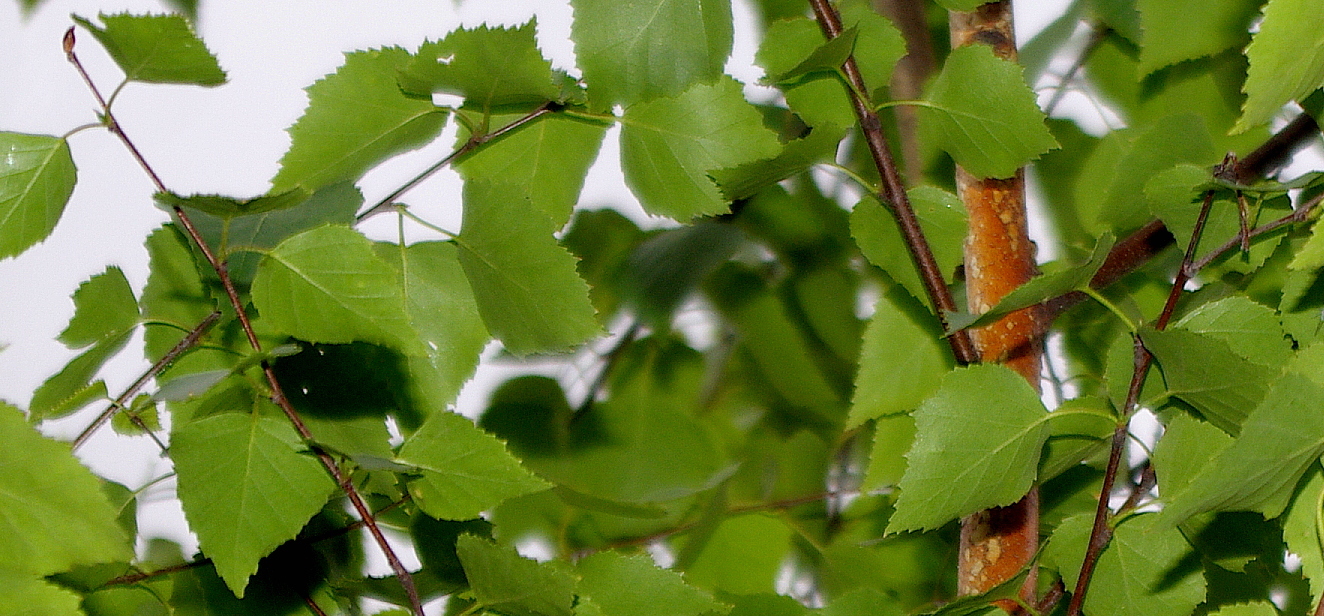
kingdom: Plantae
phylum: Tracheophyta
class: Magnoliopsida
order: Fagales
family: Betulaceae
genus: Betula
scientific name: Betula pendula
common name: Silver birch
